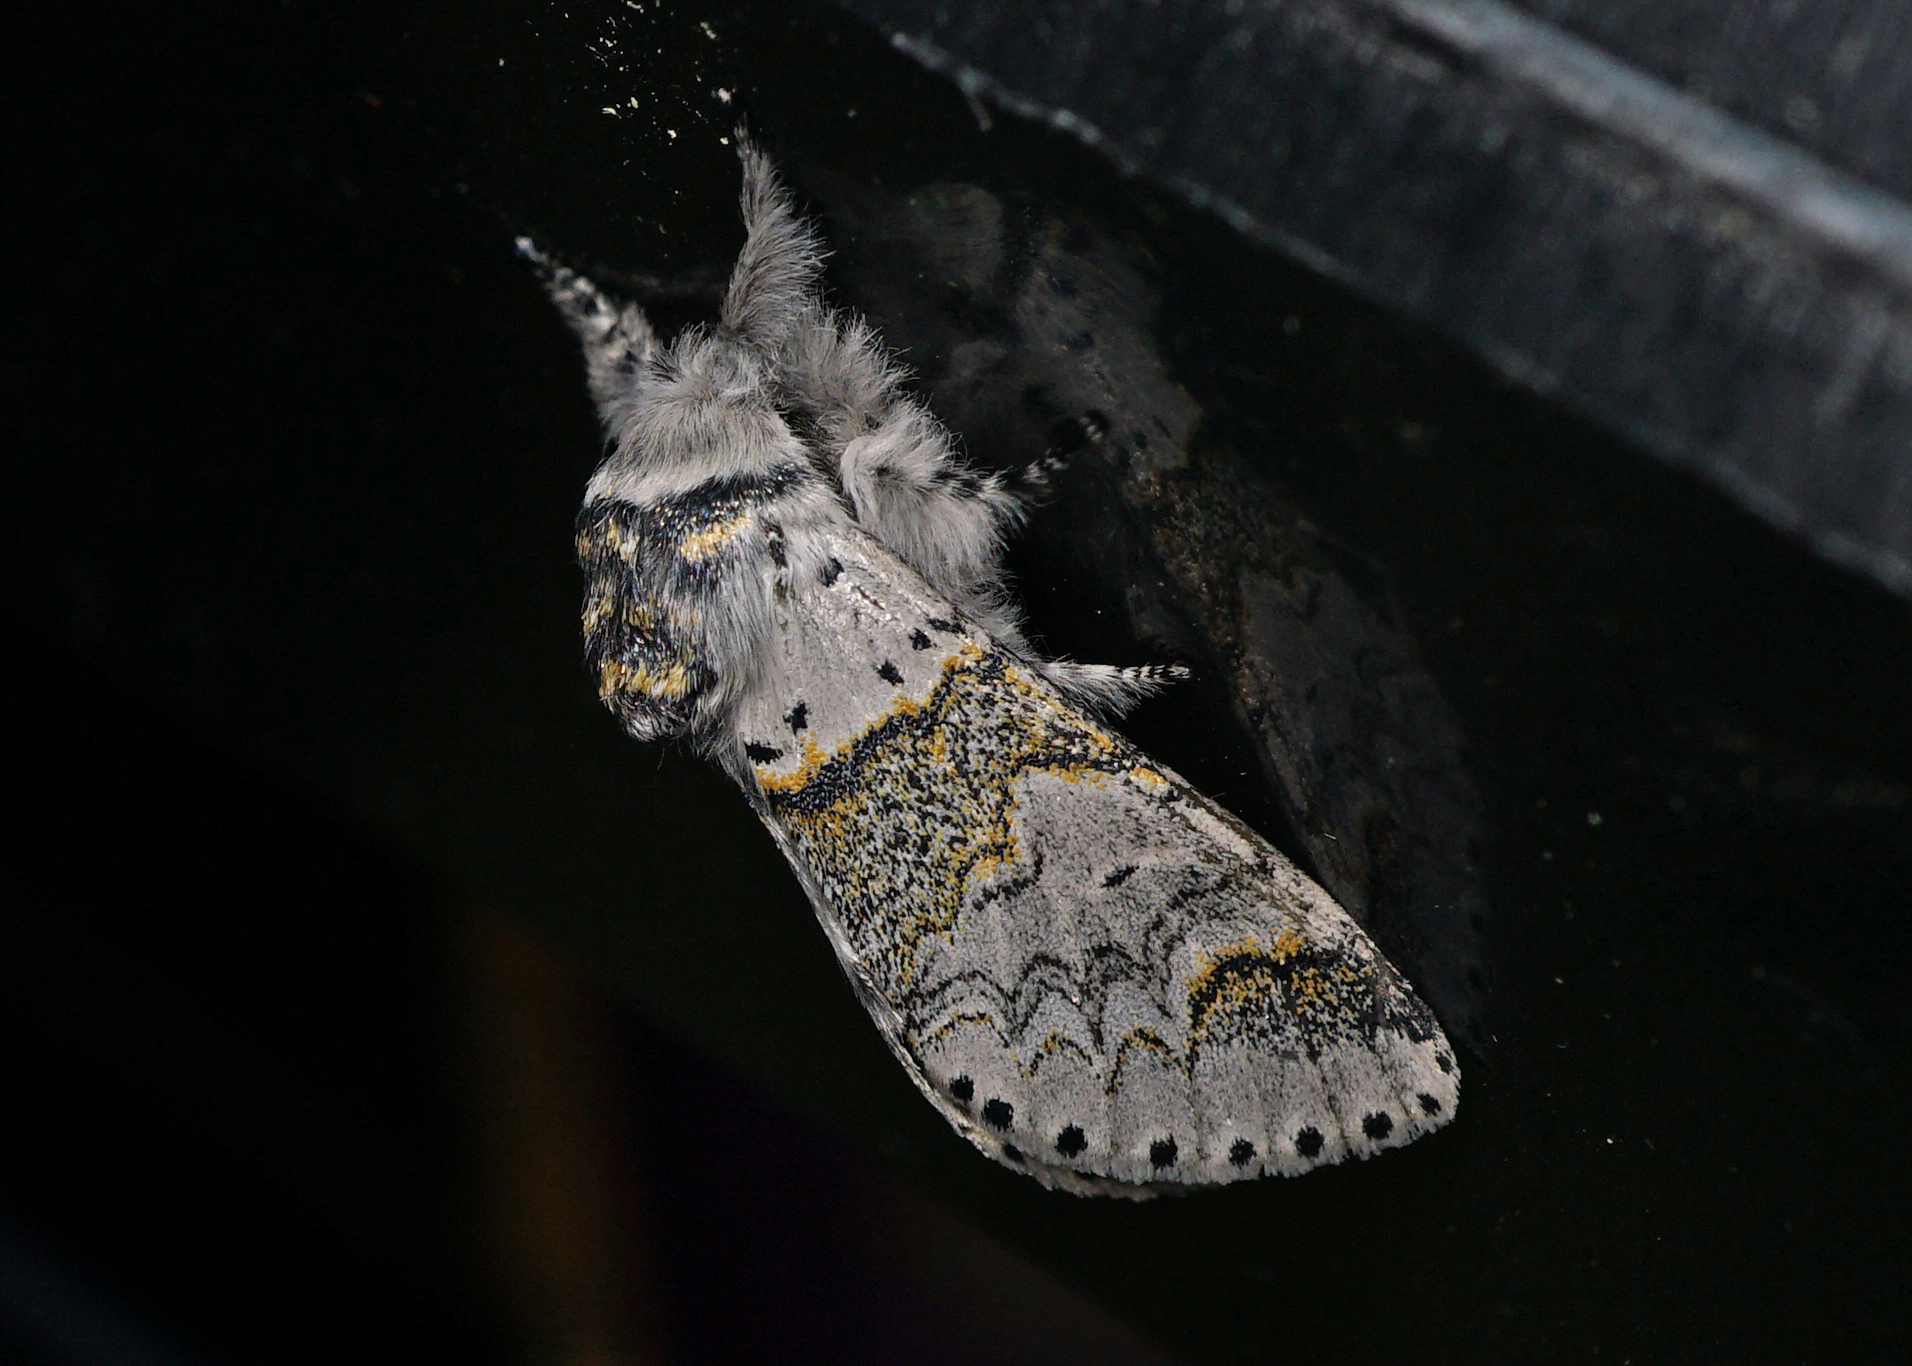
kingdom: Animalia
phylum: Arthropoda
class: Insecta
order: Lepidoptera
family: Notodontidae
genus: Furcula
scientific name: Furcula furcula
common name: Sallow kitten
